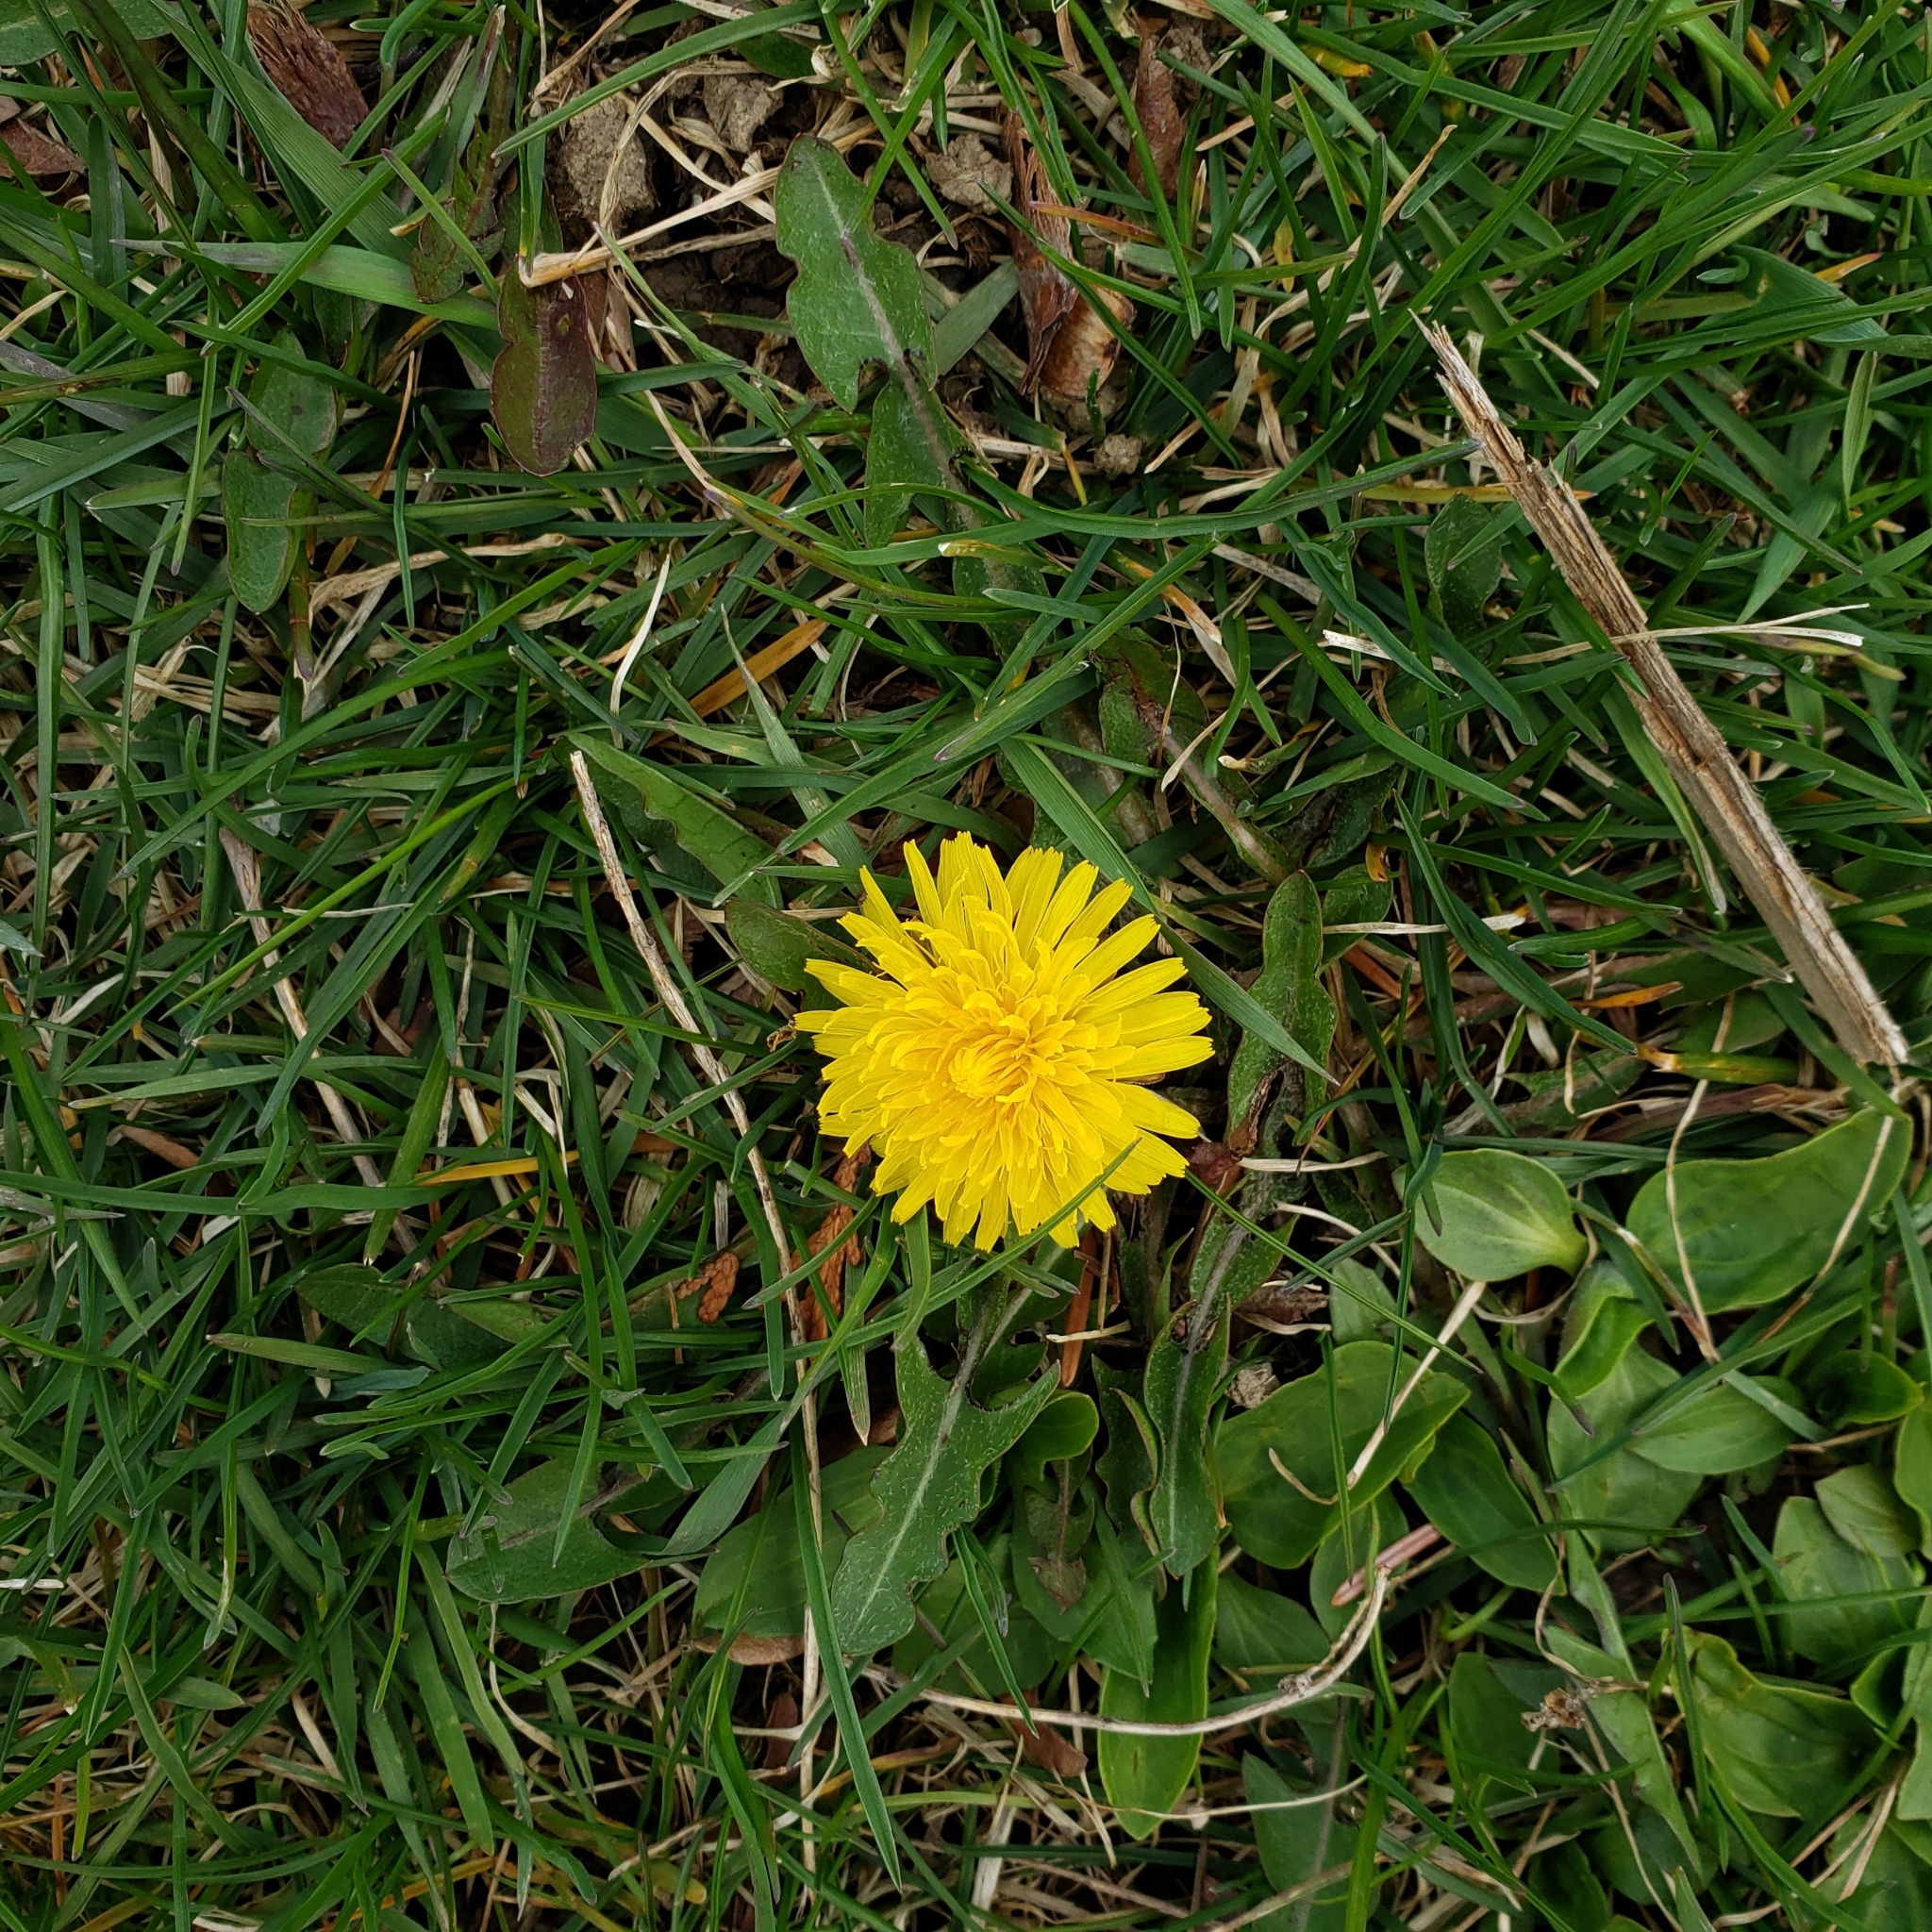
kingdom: Plantae
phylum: Tracheophyta
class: Magnoliopsida
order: Asterales
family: Asteraceae
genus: Taraxacum
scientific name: Taraxacum officinale
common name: Common dandelion
